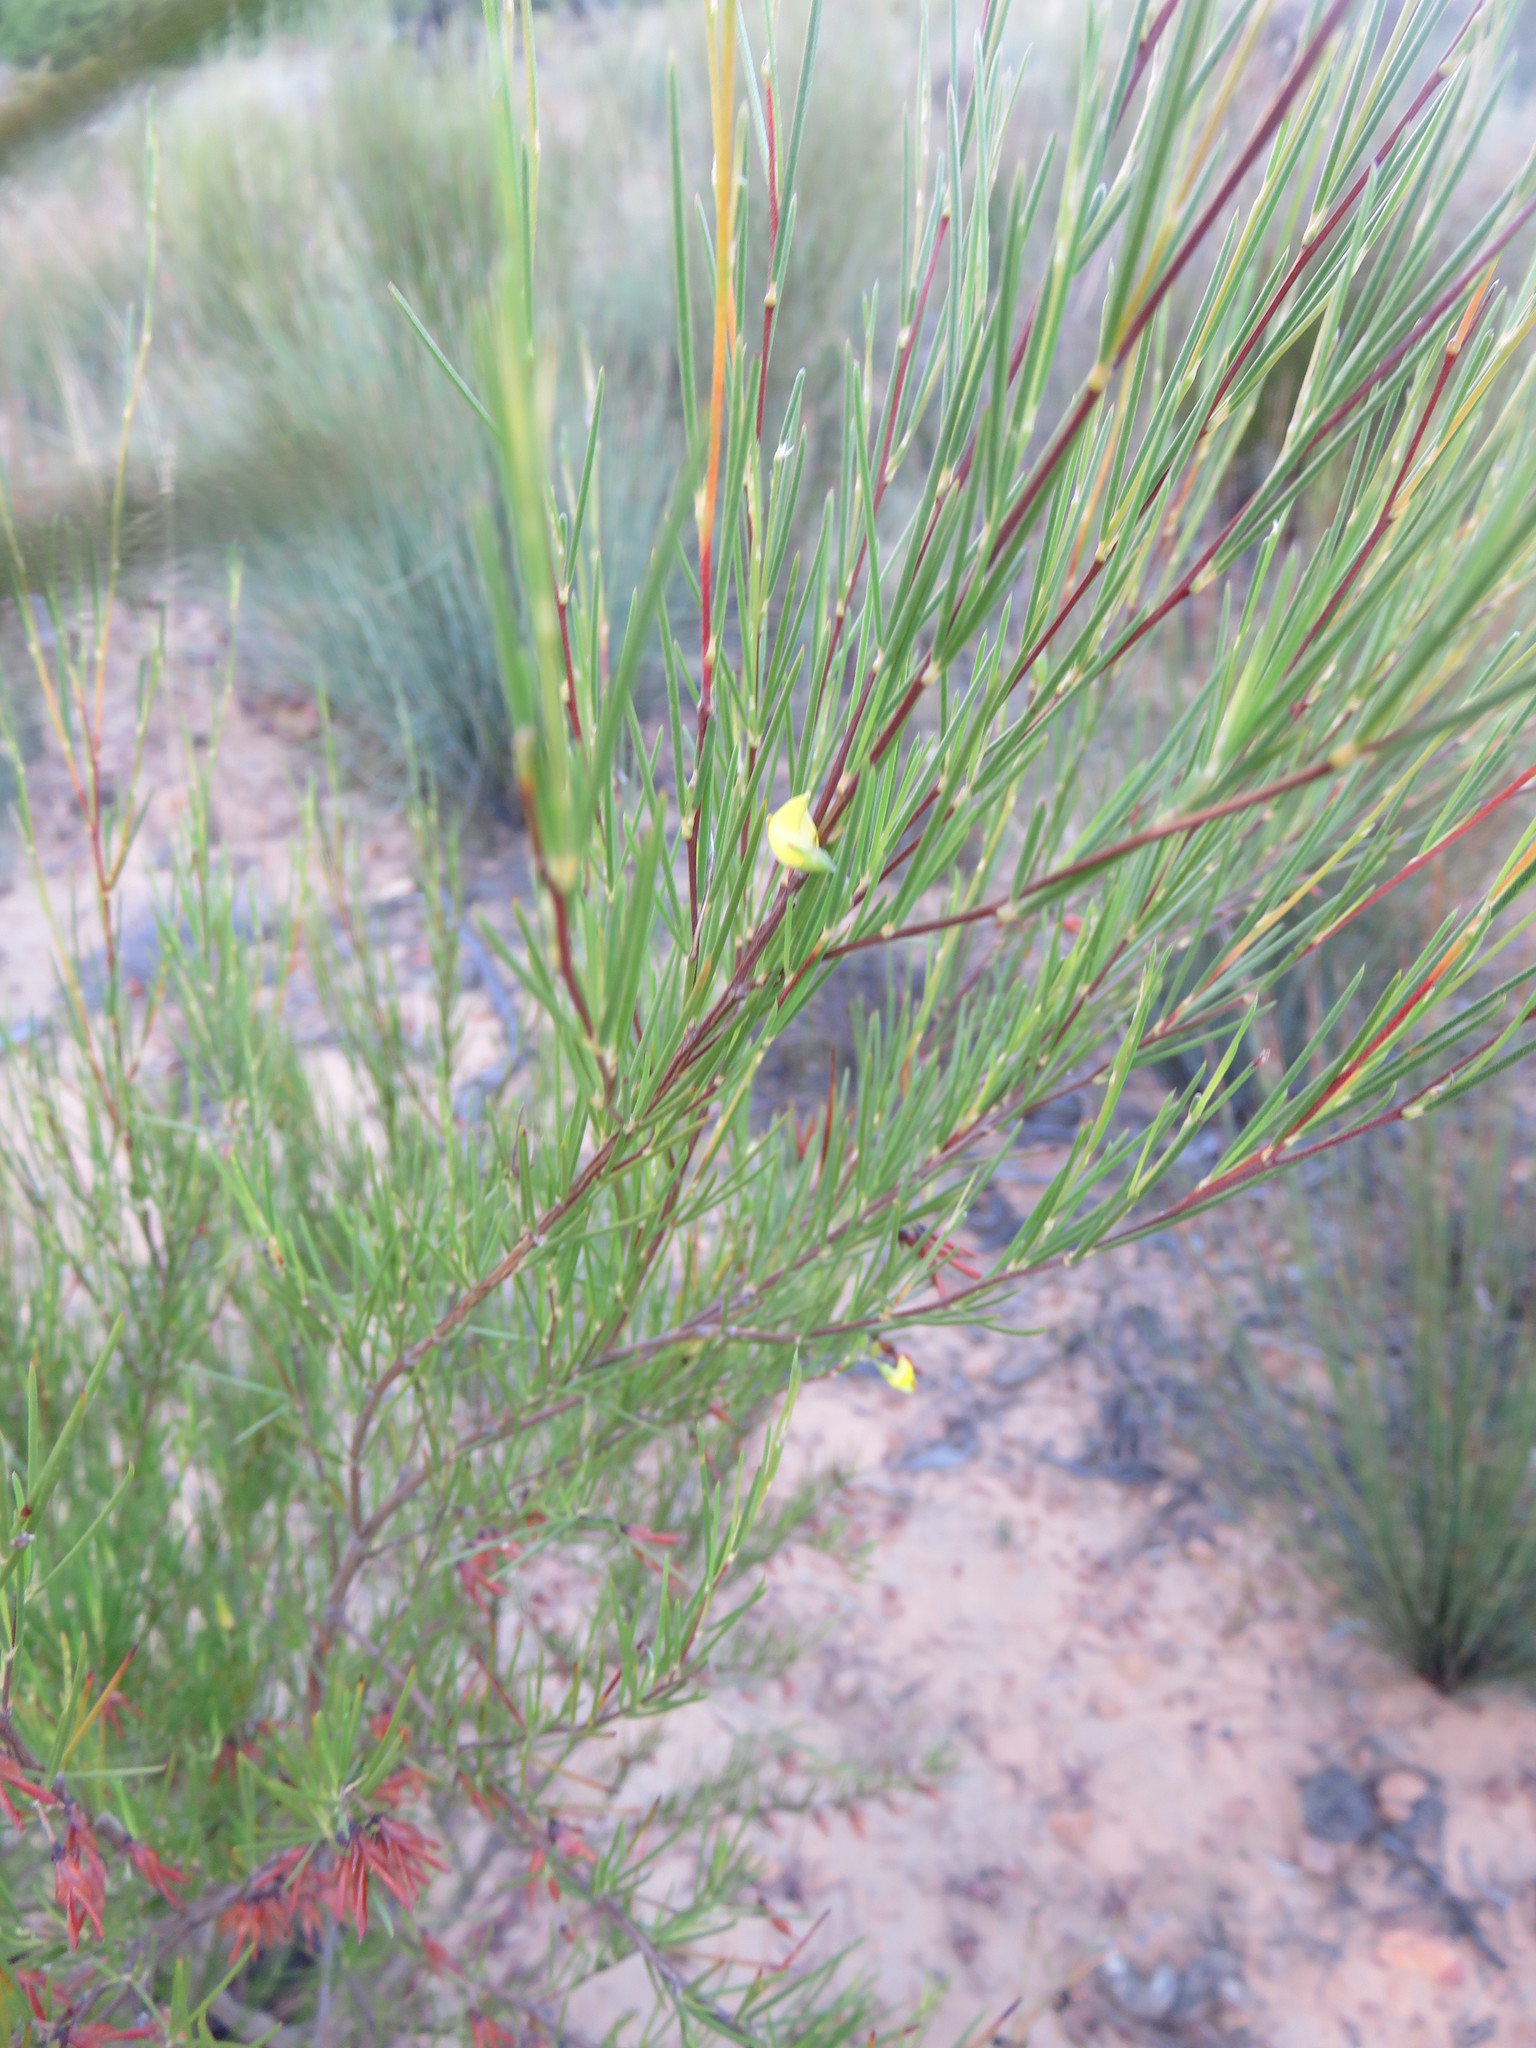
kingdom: Plantae
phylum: Tracheophyta
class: Magnoliopsida
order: Fabales
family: Fabaceae
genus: Aspalathus
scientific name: Aspalathus linearis
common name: Rooibos-tea
